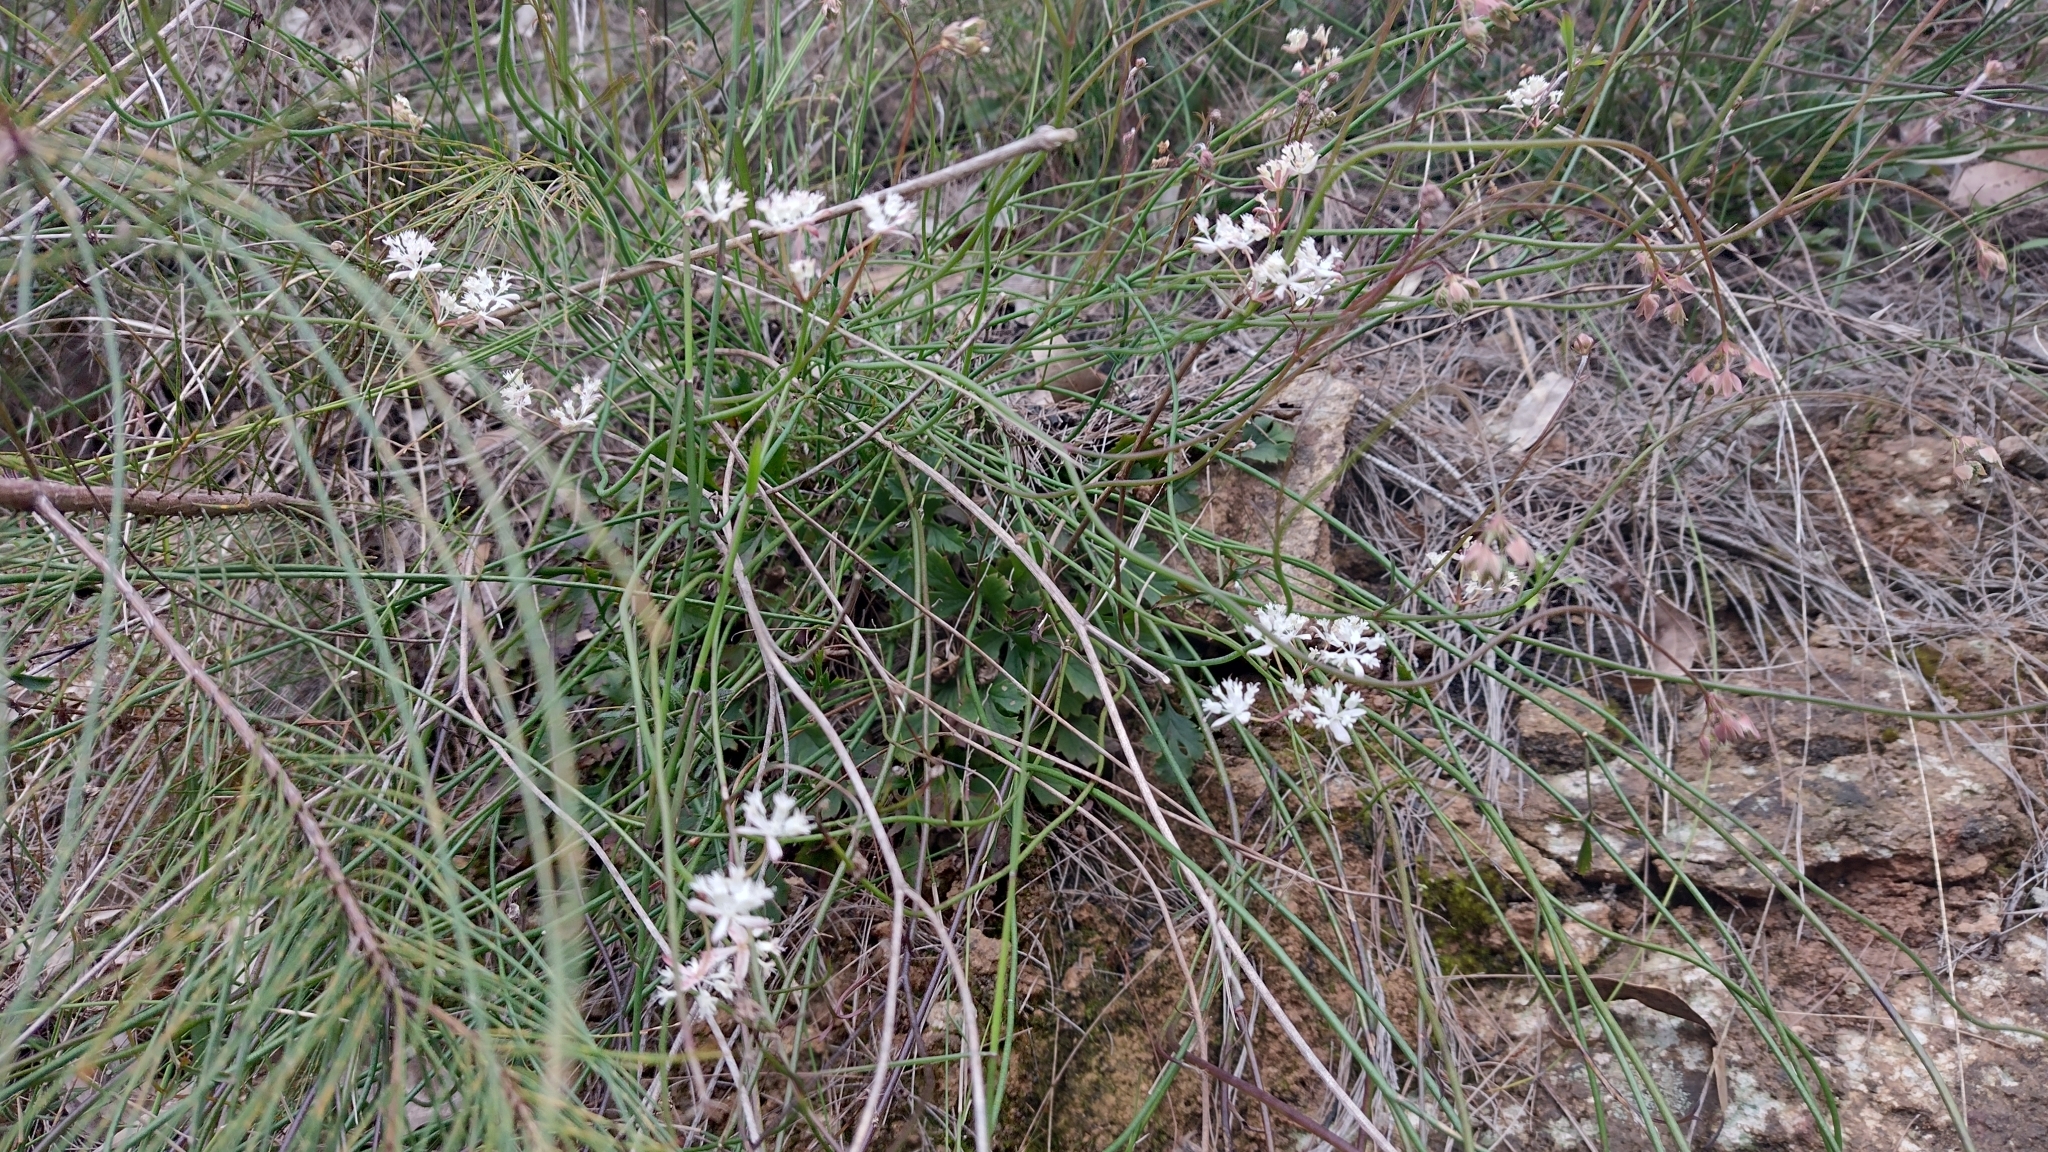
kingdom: Plantae
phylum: Tracheophyta
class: Magnoliopsida
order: Apiales
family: Apiaceae
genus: Xanthosia
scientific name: Xanthosia atkinsoniana
